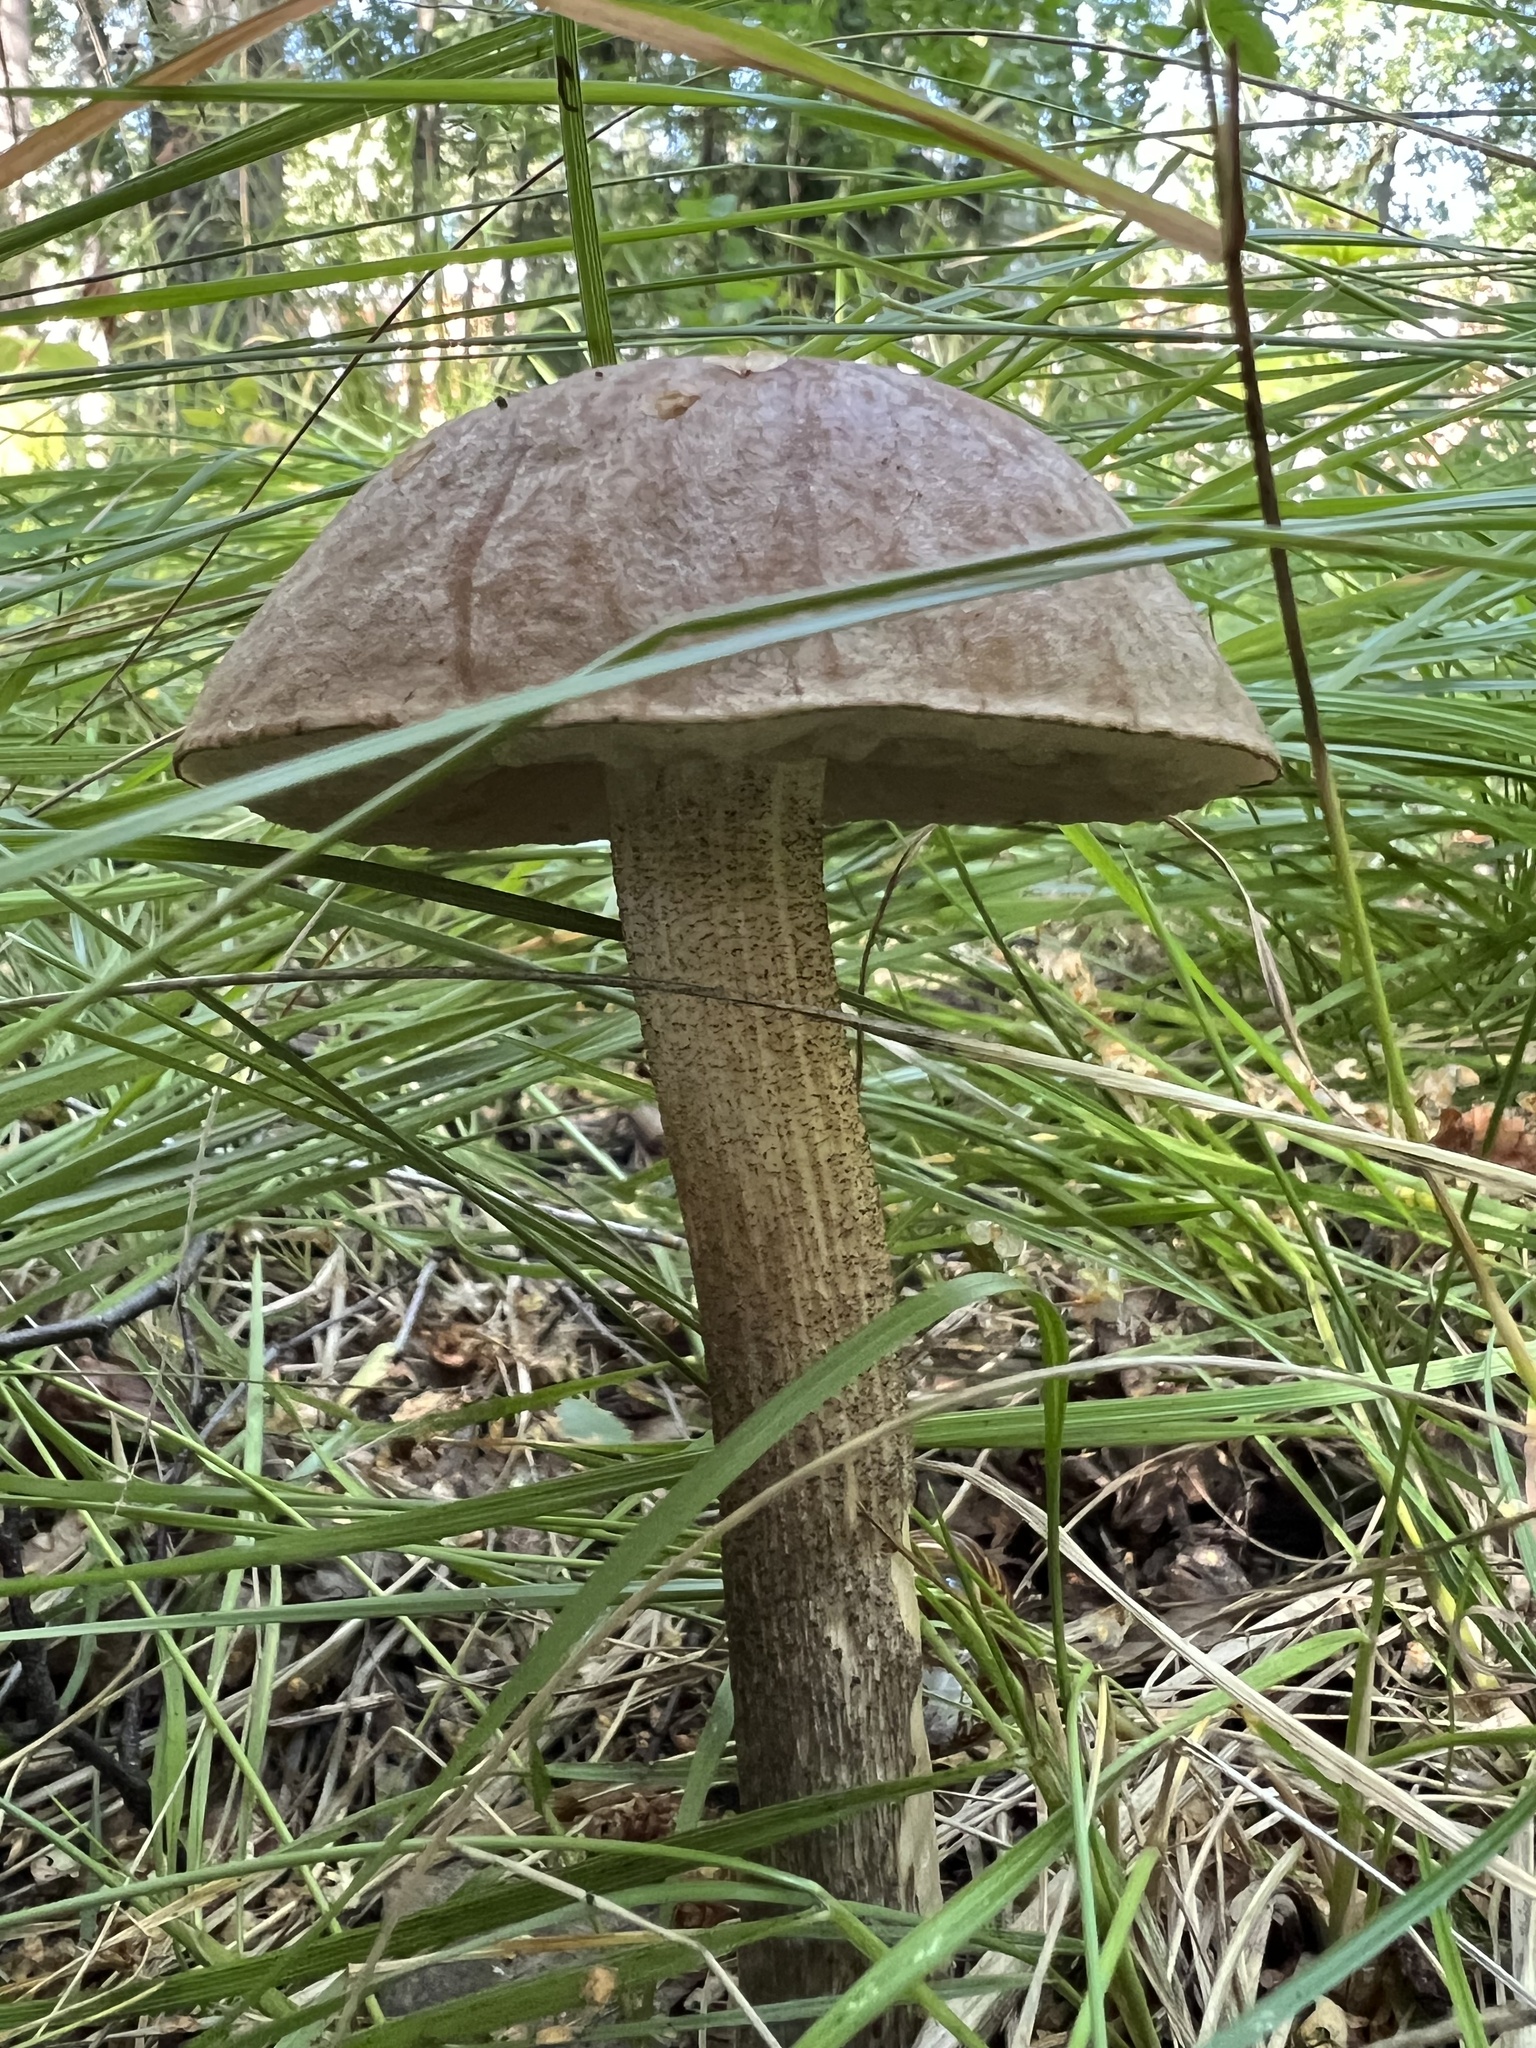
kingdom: Fungi
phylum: Basidiomycota
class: Agaricomycetes
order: Boletales
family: Boletaceae
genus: Leccinum
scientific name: Leccinum scabrum
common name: Blushing bolete
